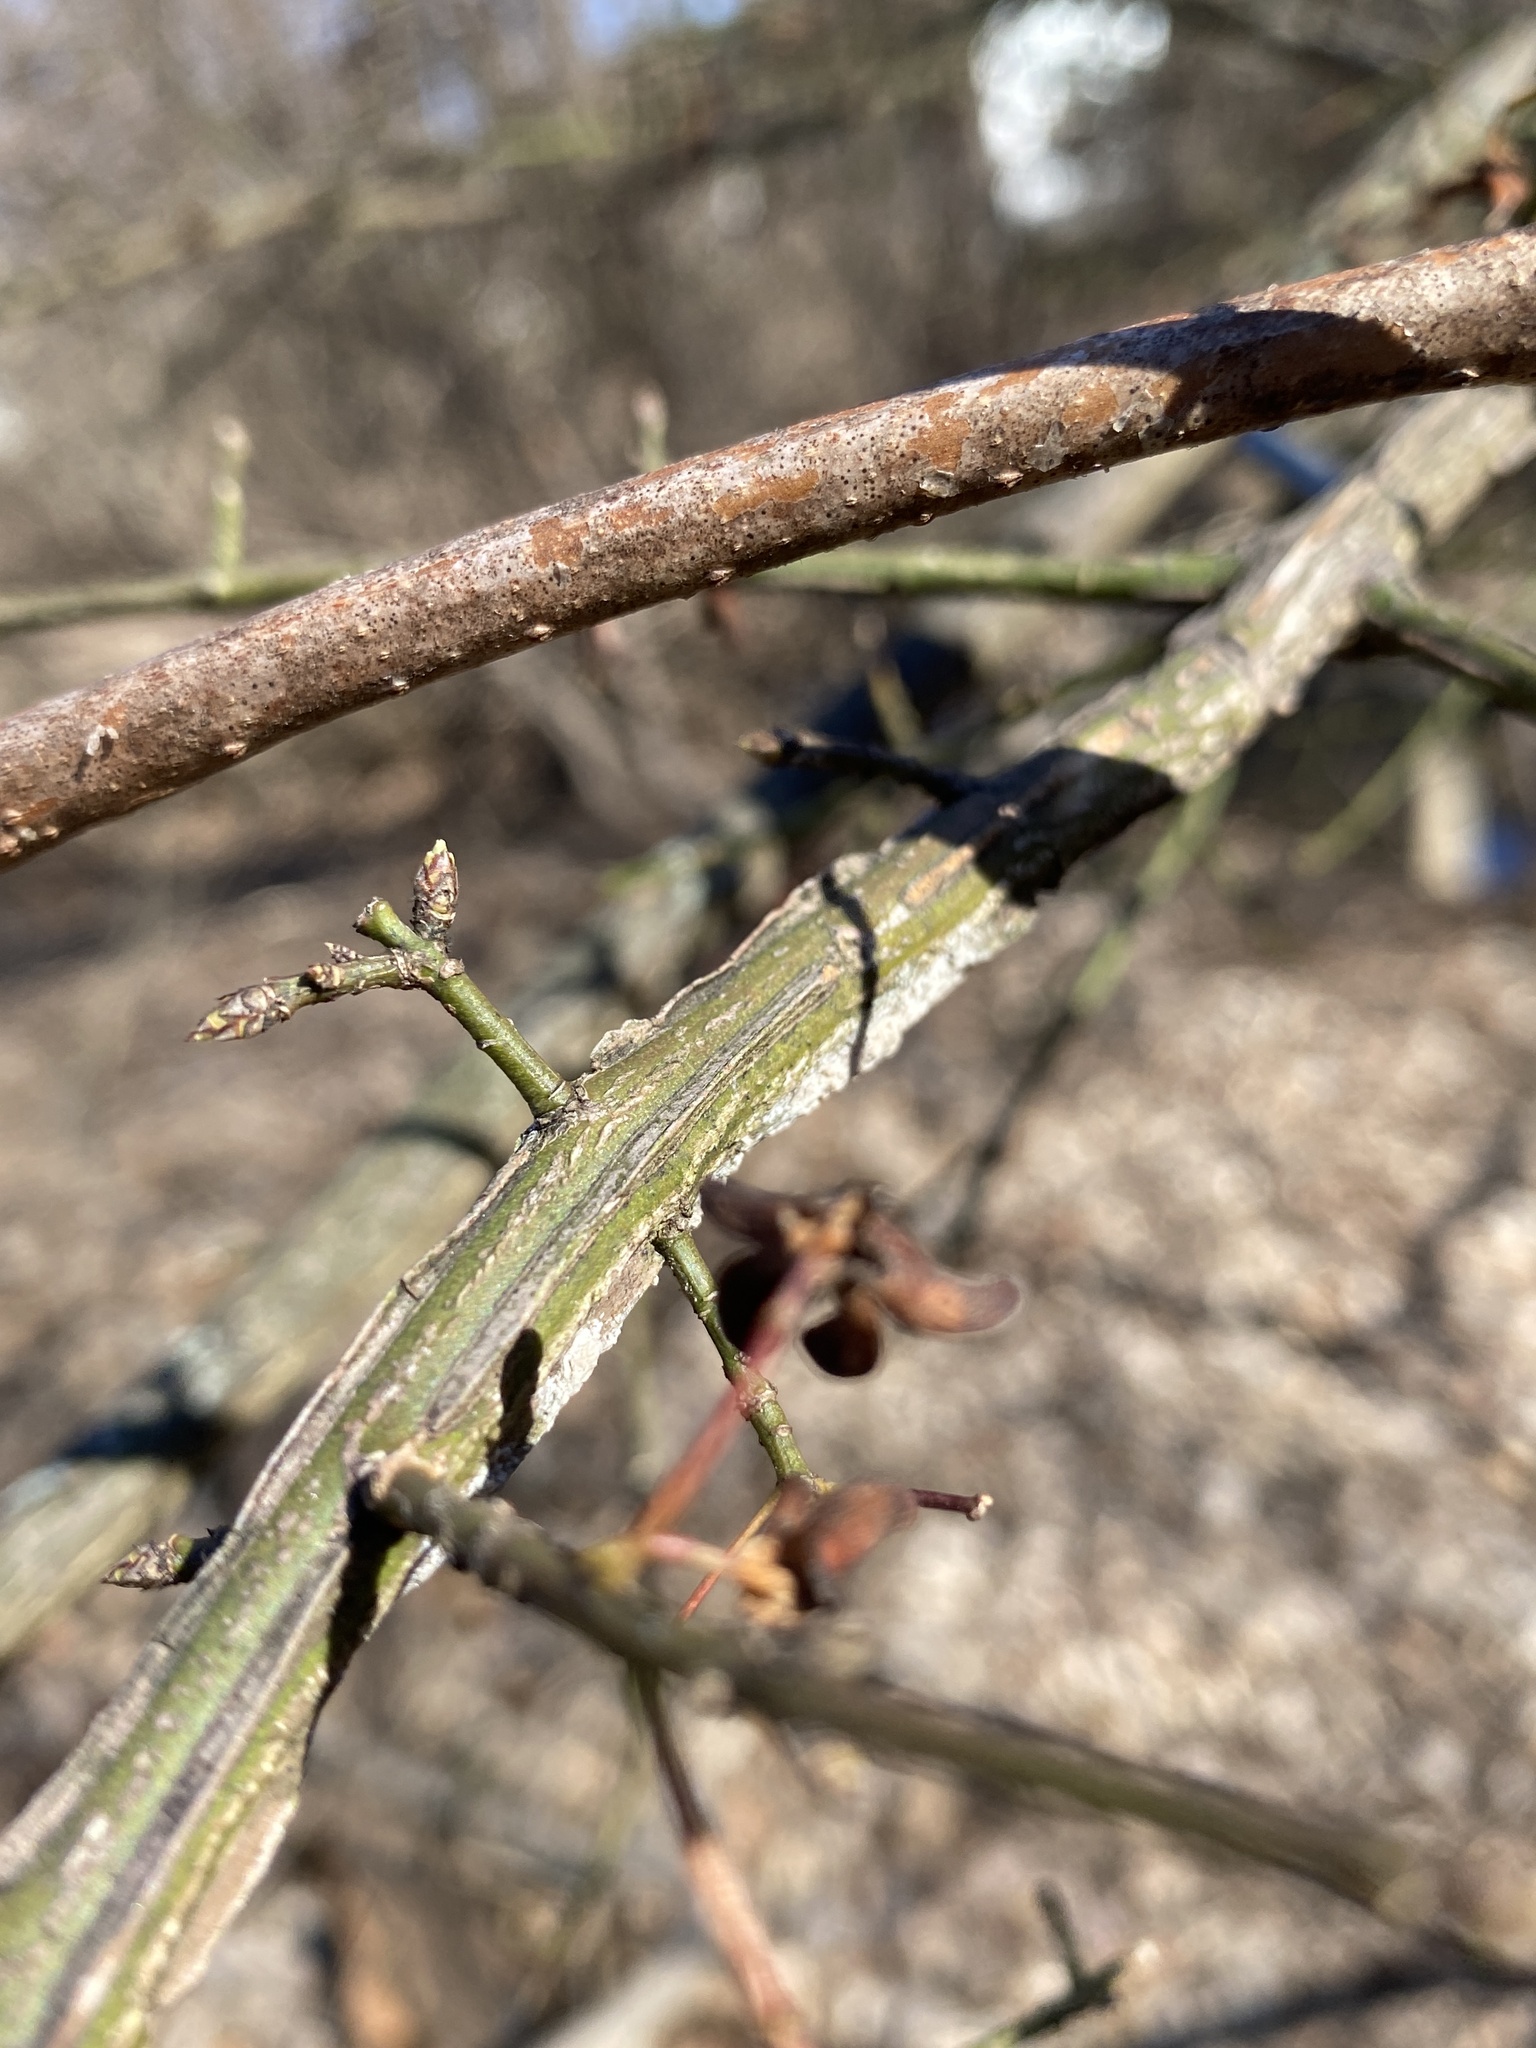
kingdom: Plantae
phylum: Tracheophyta
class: Magnoliopsida
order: Celastrales
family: Celastraceae
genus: Euonymus
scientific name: Euonymus alatus
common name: Winged euonymus
